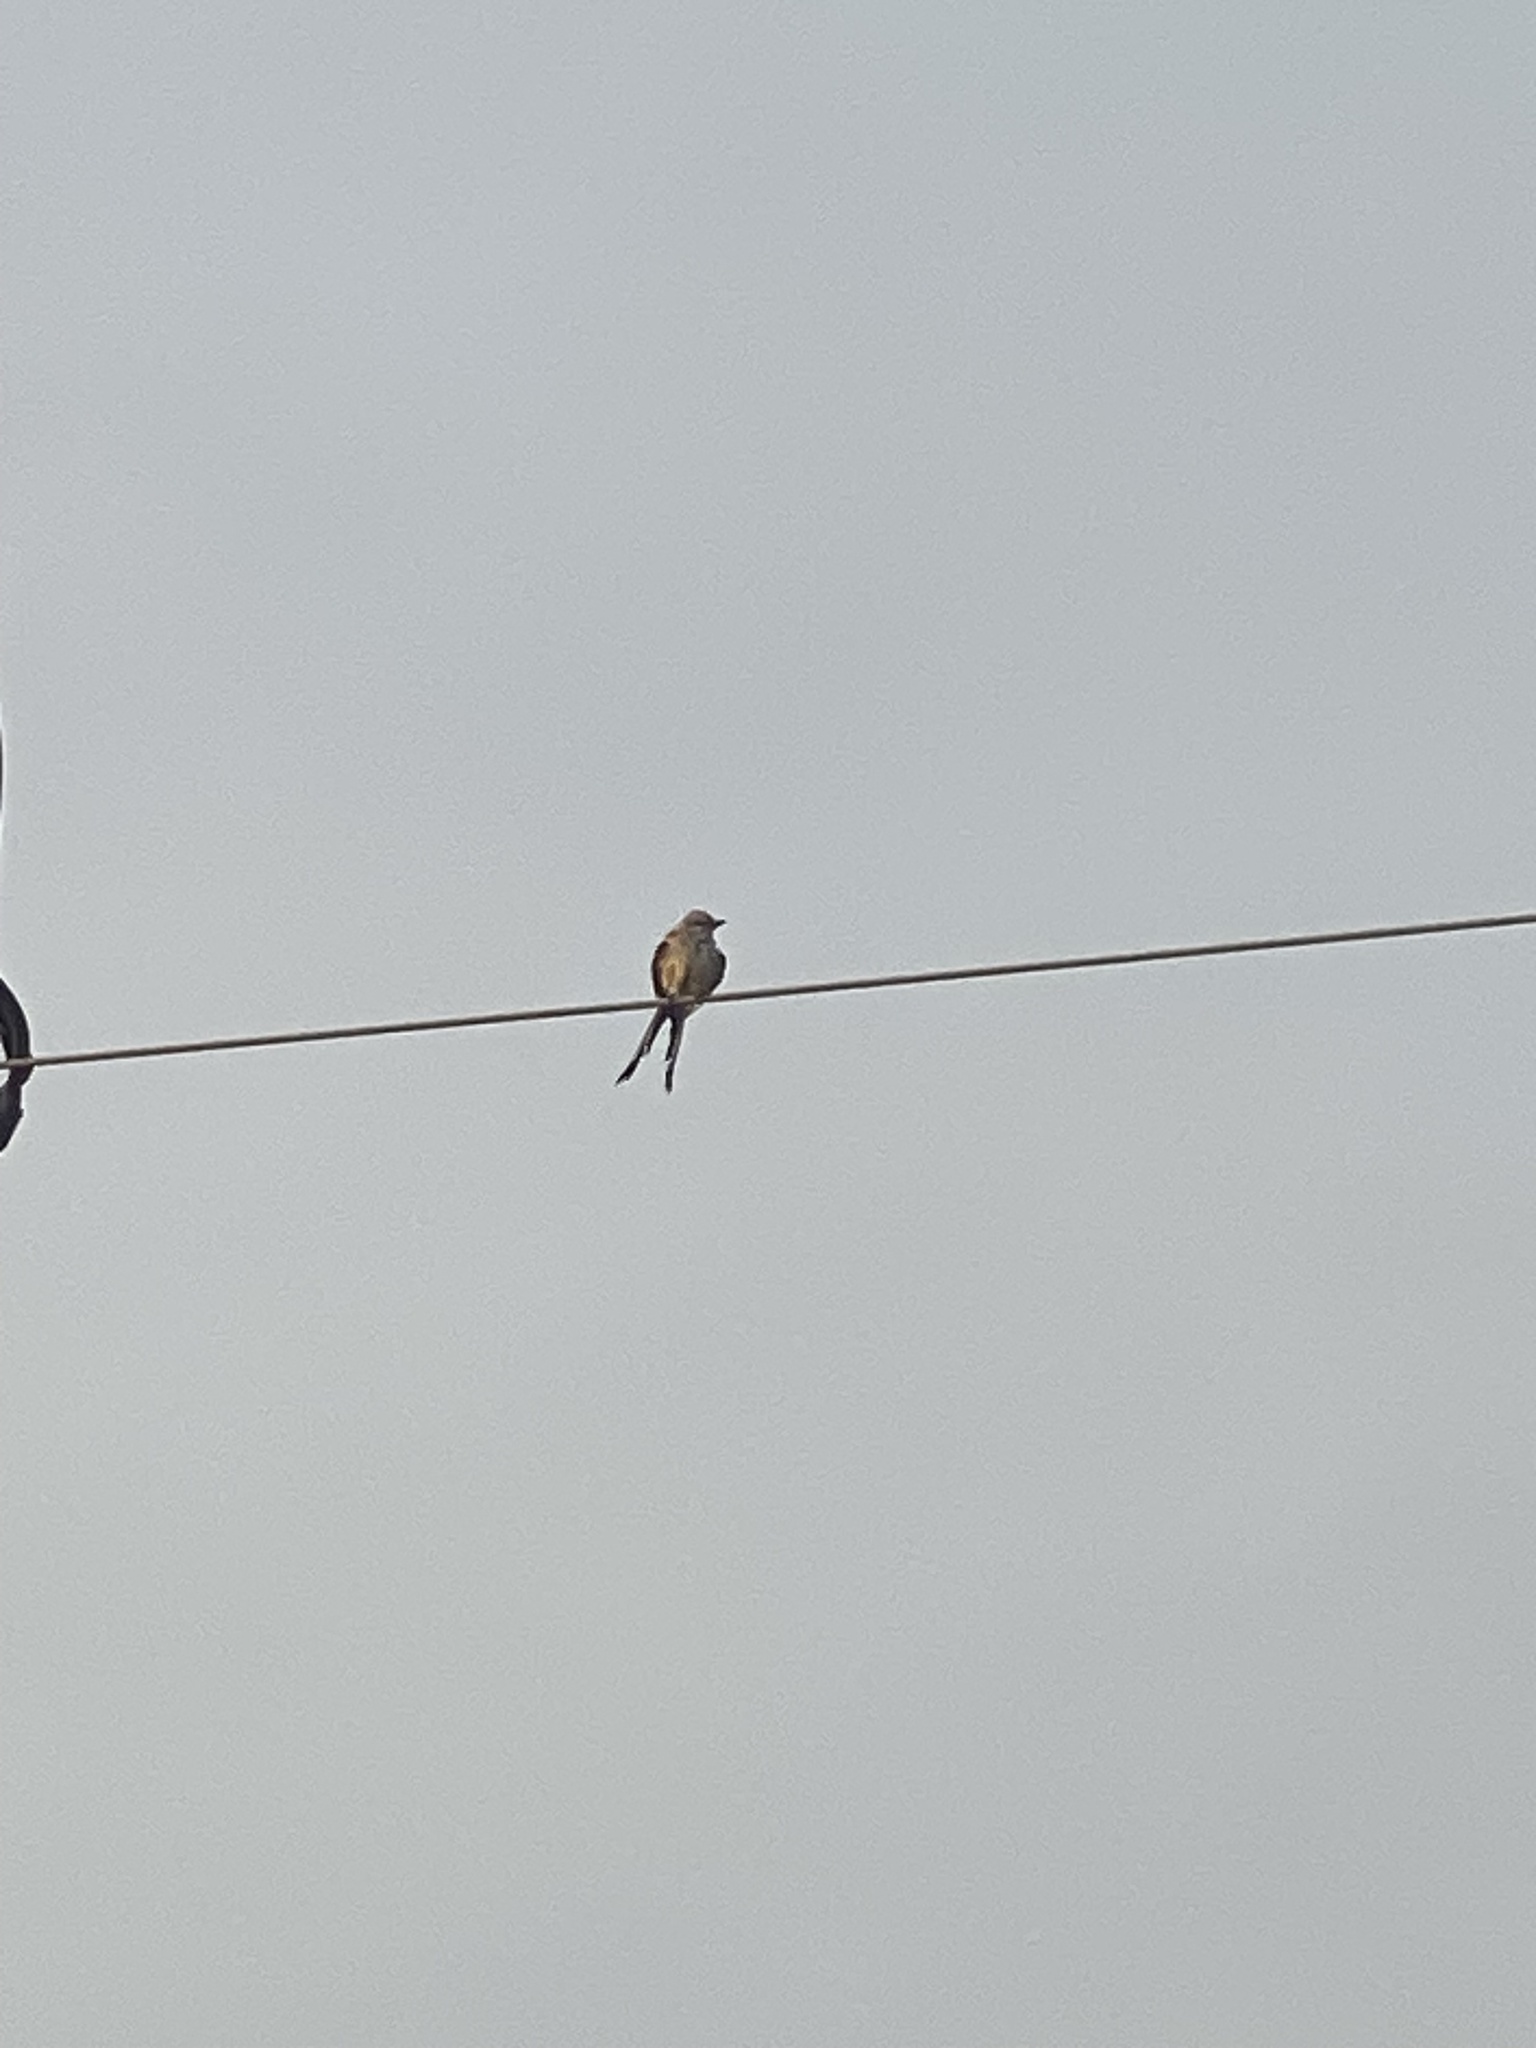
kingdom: Animalia
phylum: Chordata
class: Aves
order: Passeriformes
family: Tyrannidae
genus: Tyrannus
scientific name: Tyrannus forficatus
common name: Scissor-tailed flycatcher
